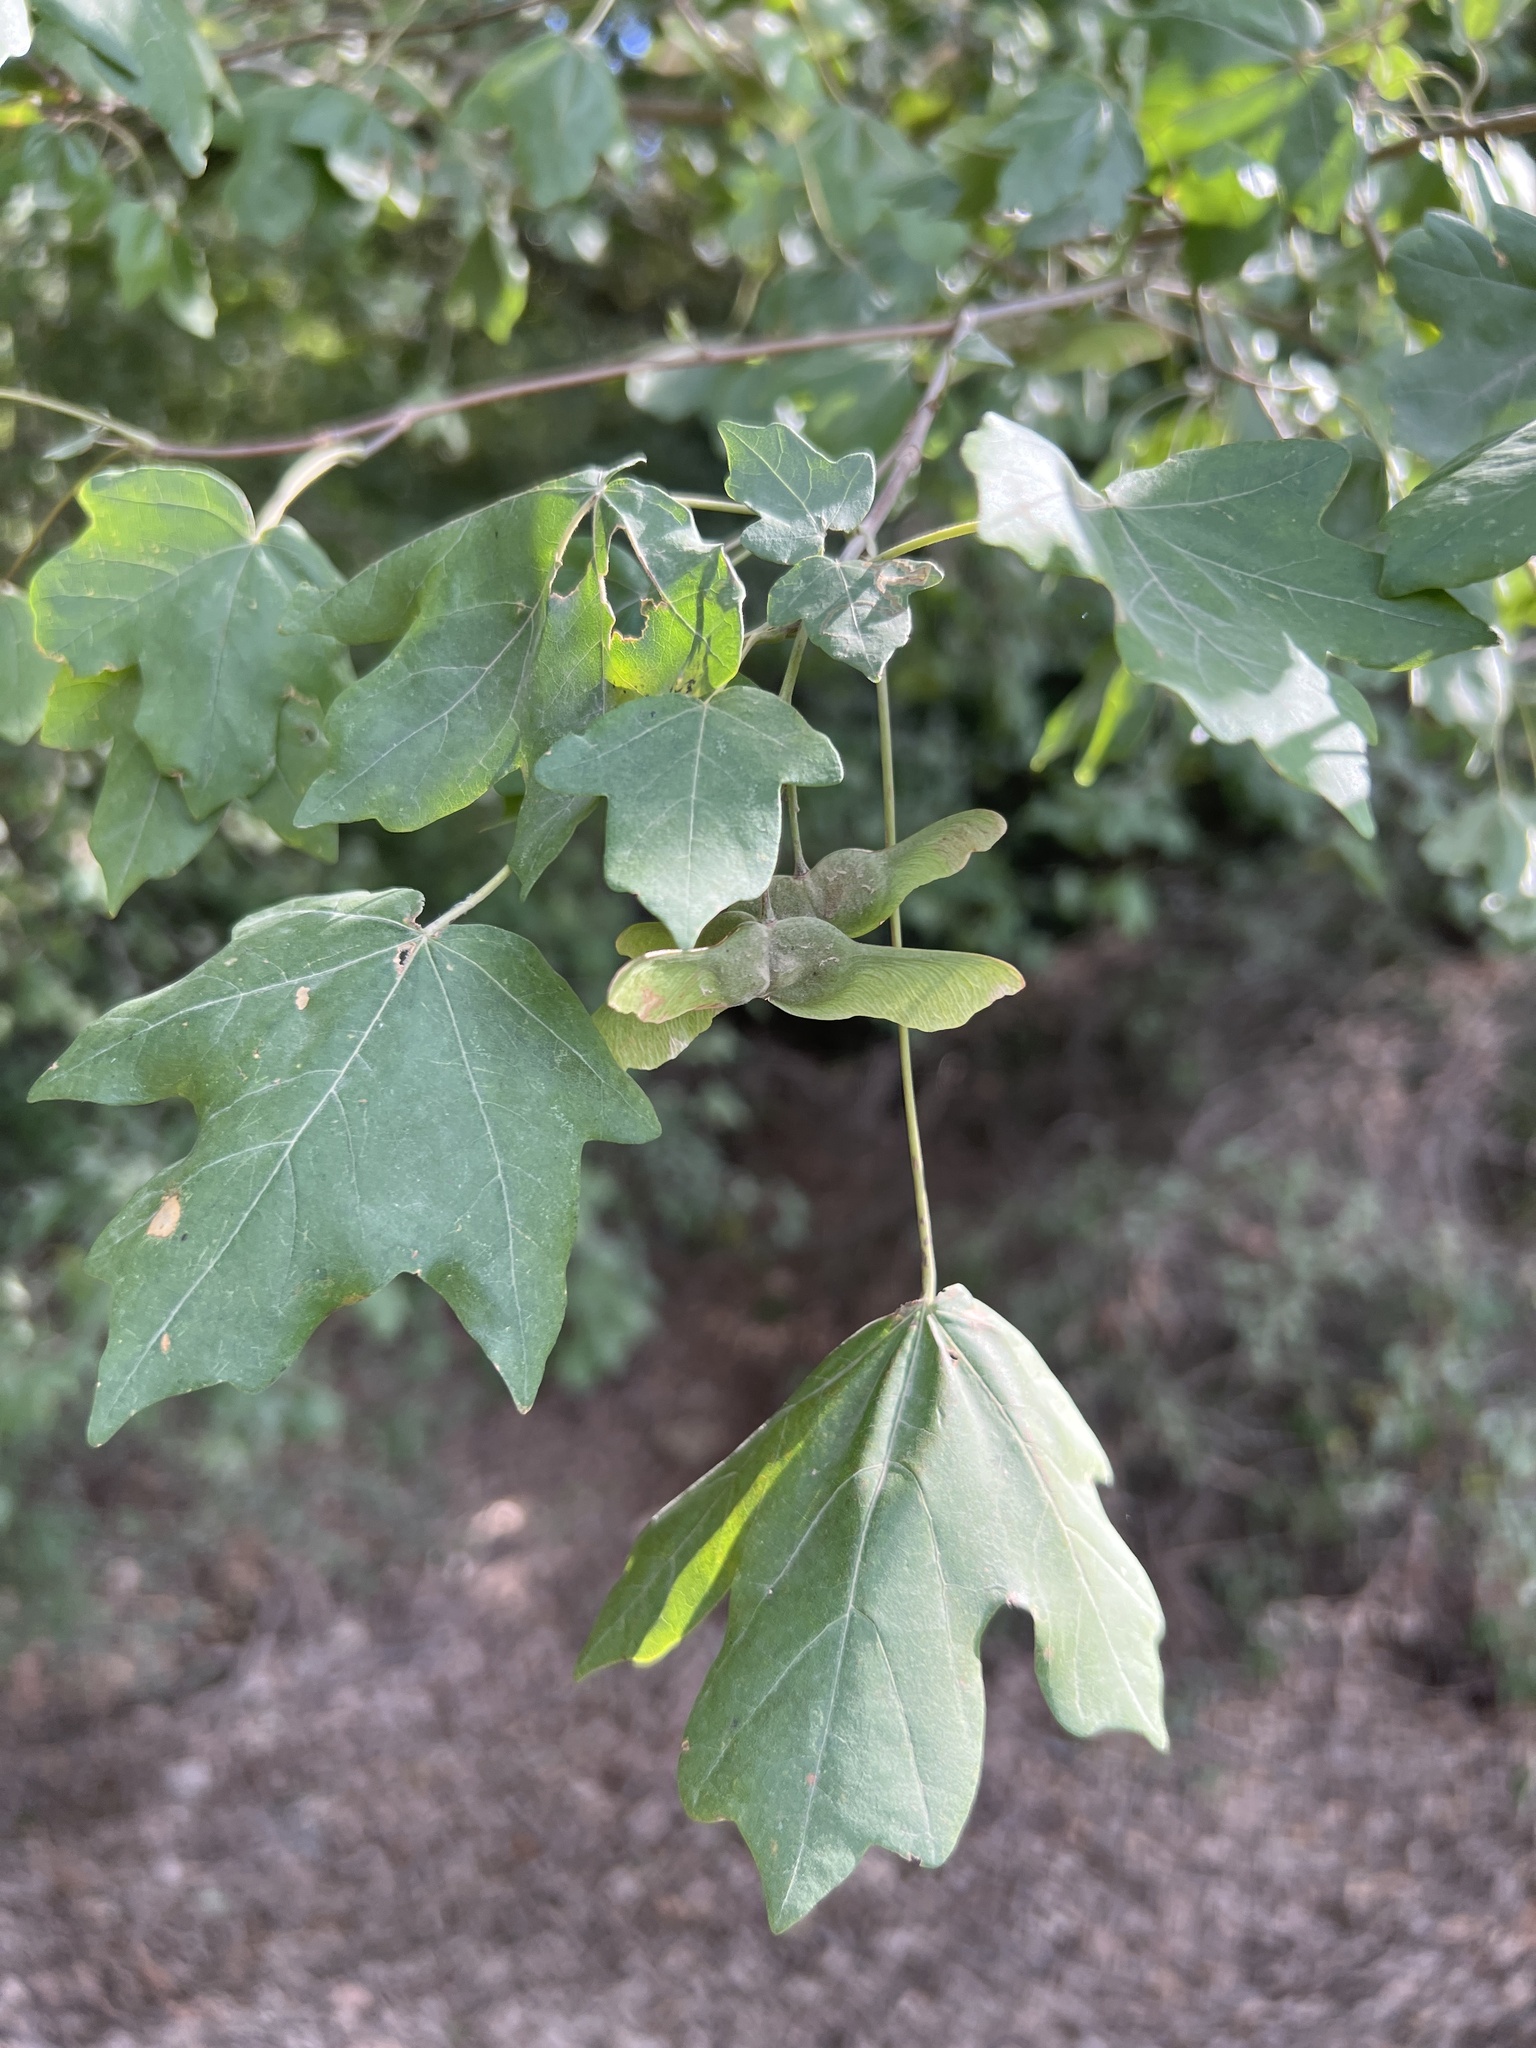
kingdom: Plantae
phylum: Tracheophyta
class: Magnoliopsida
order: Sapindales
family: Sapindaceae
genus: Acer
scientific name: Acer campestre
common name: Field maple
